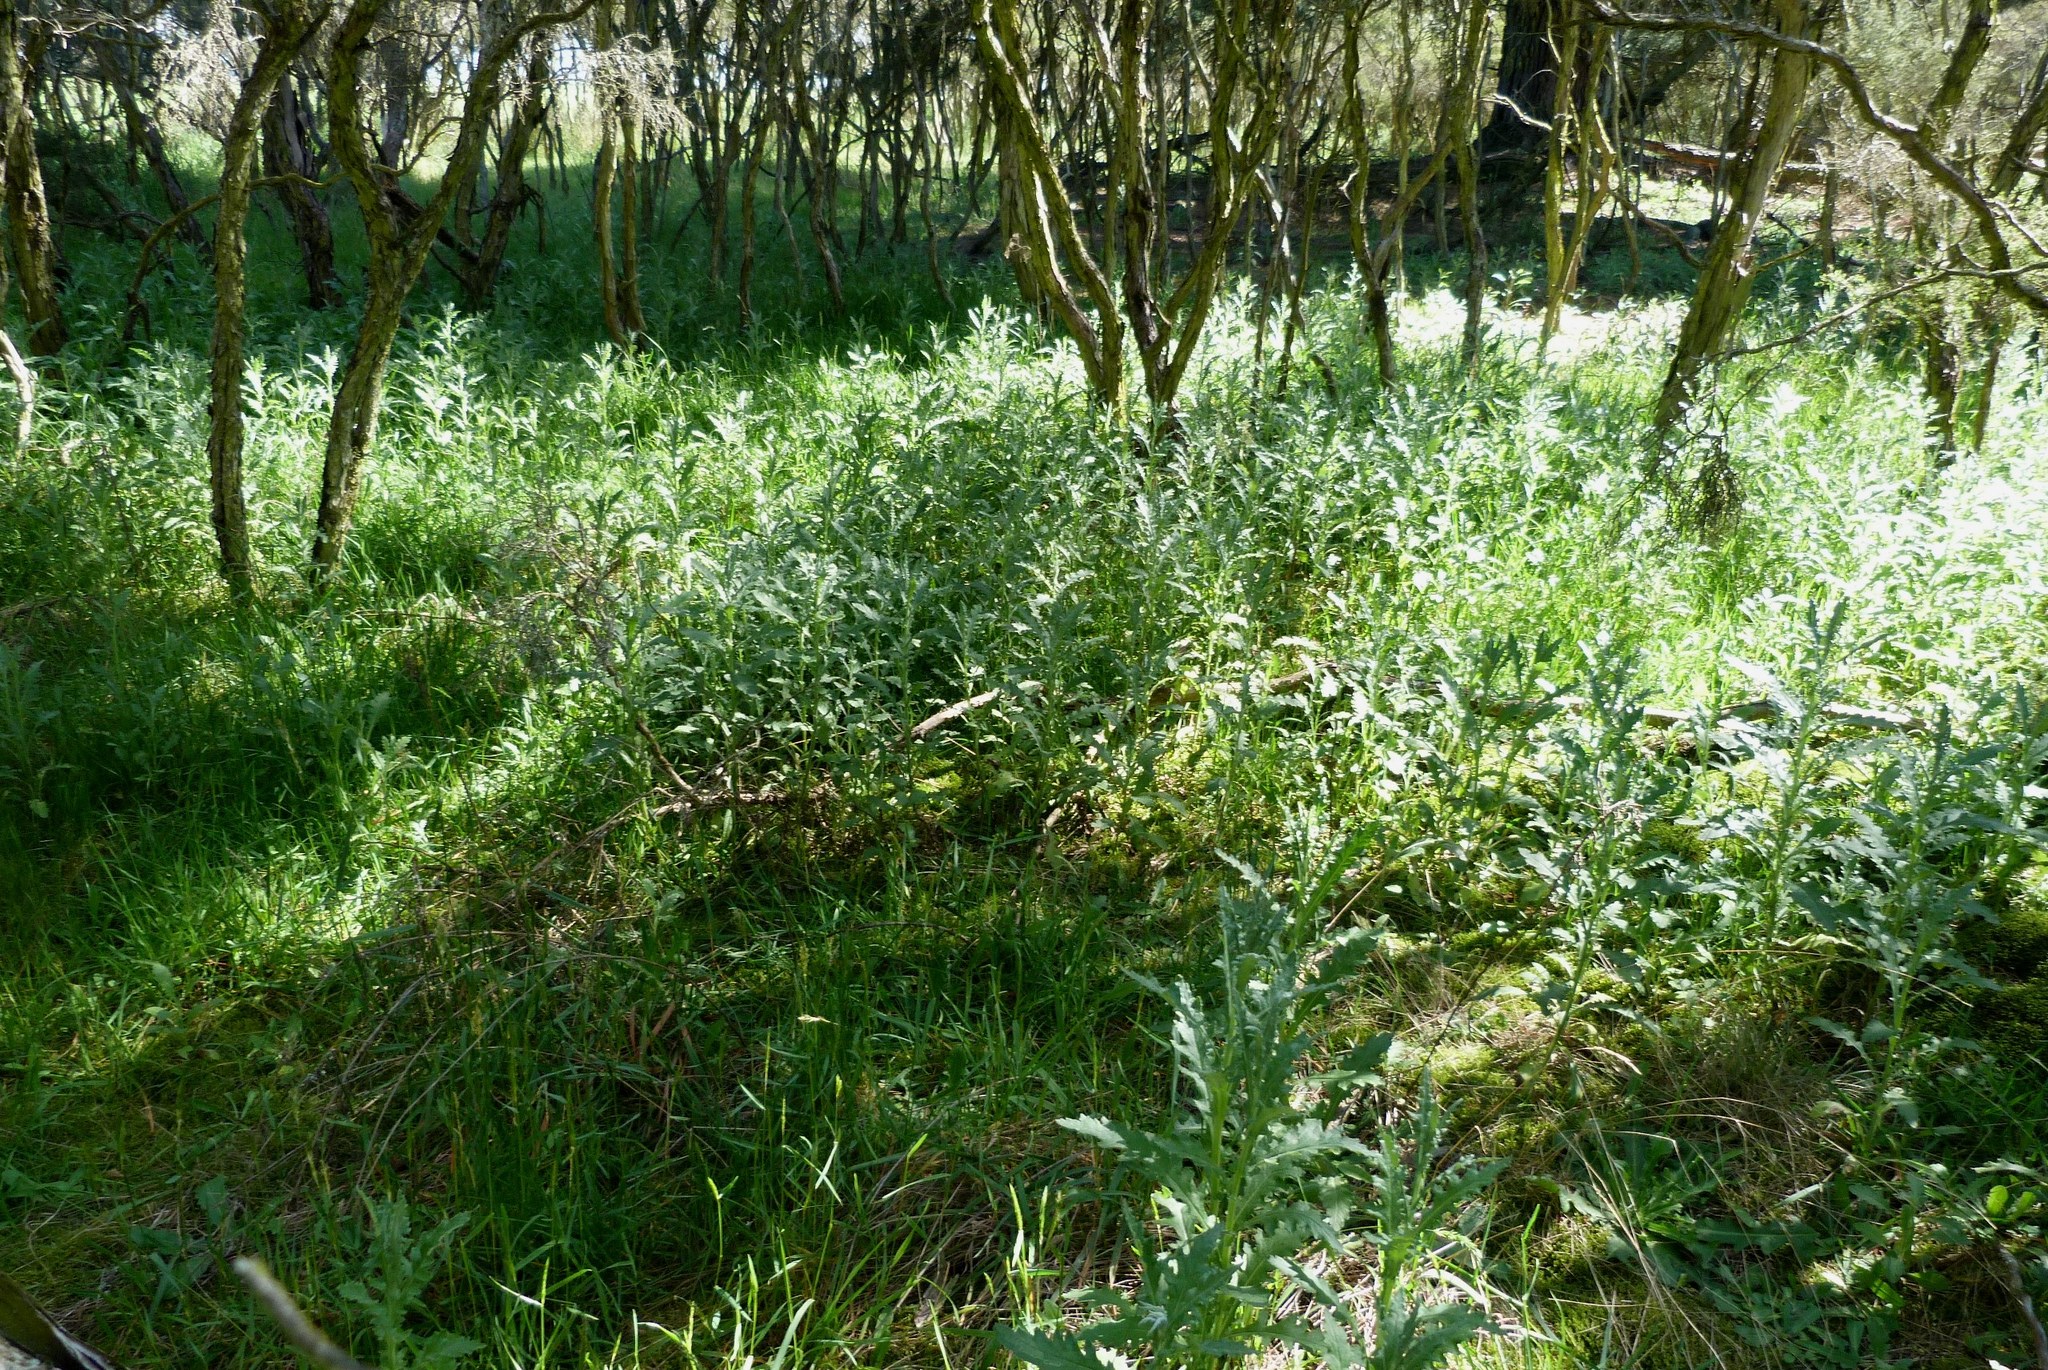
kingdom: Plantae
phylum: Tracheophyta
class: Magnoliopsida
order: Asterales
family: Asteraceae
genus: Senecio
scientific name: Senecio glomeratus
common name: Cutleaf burnweed
